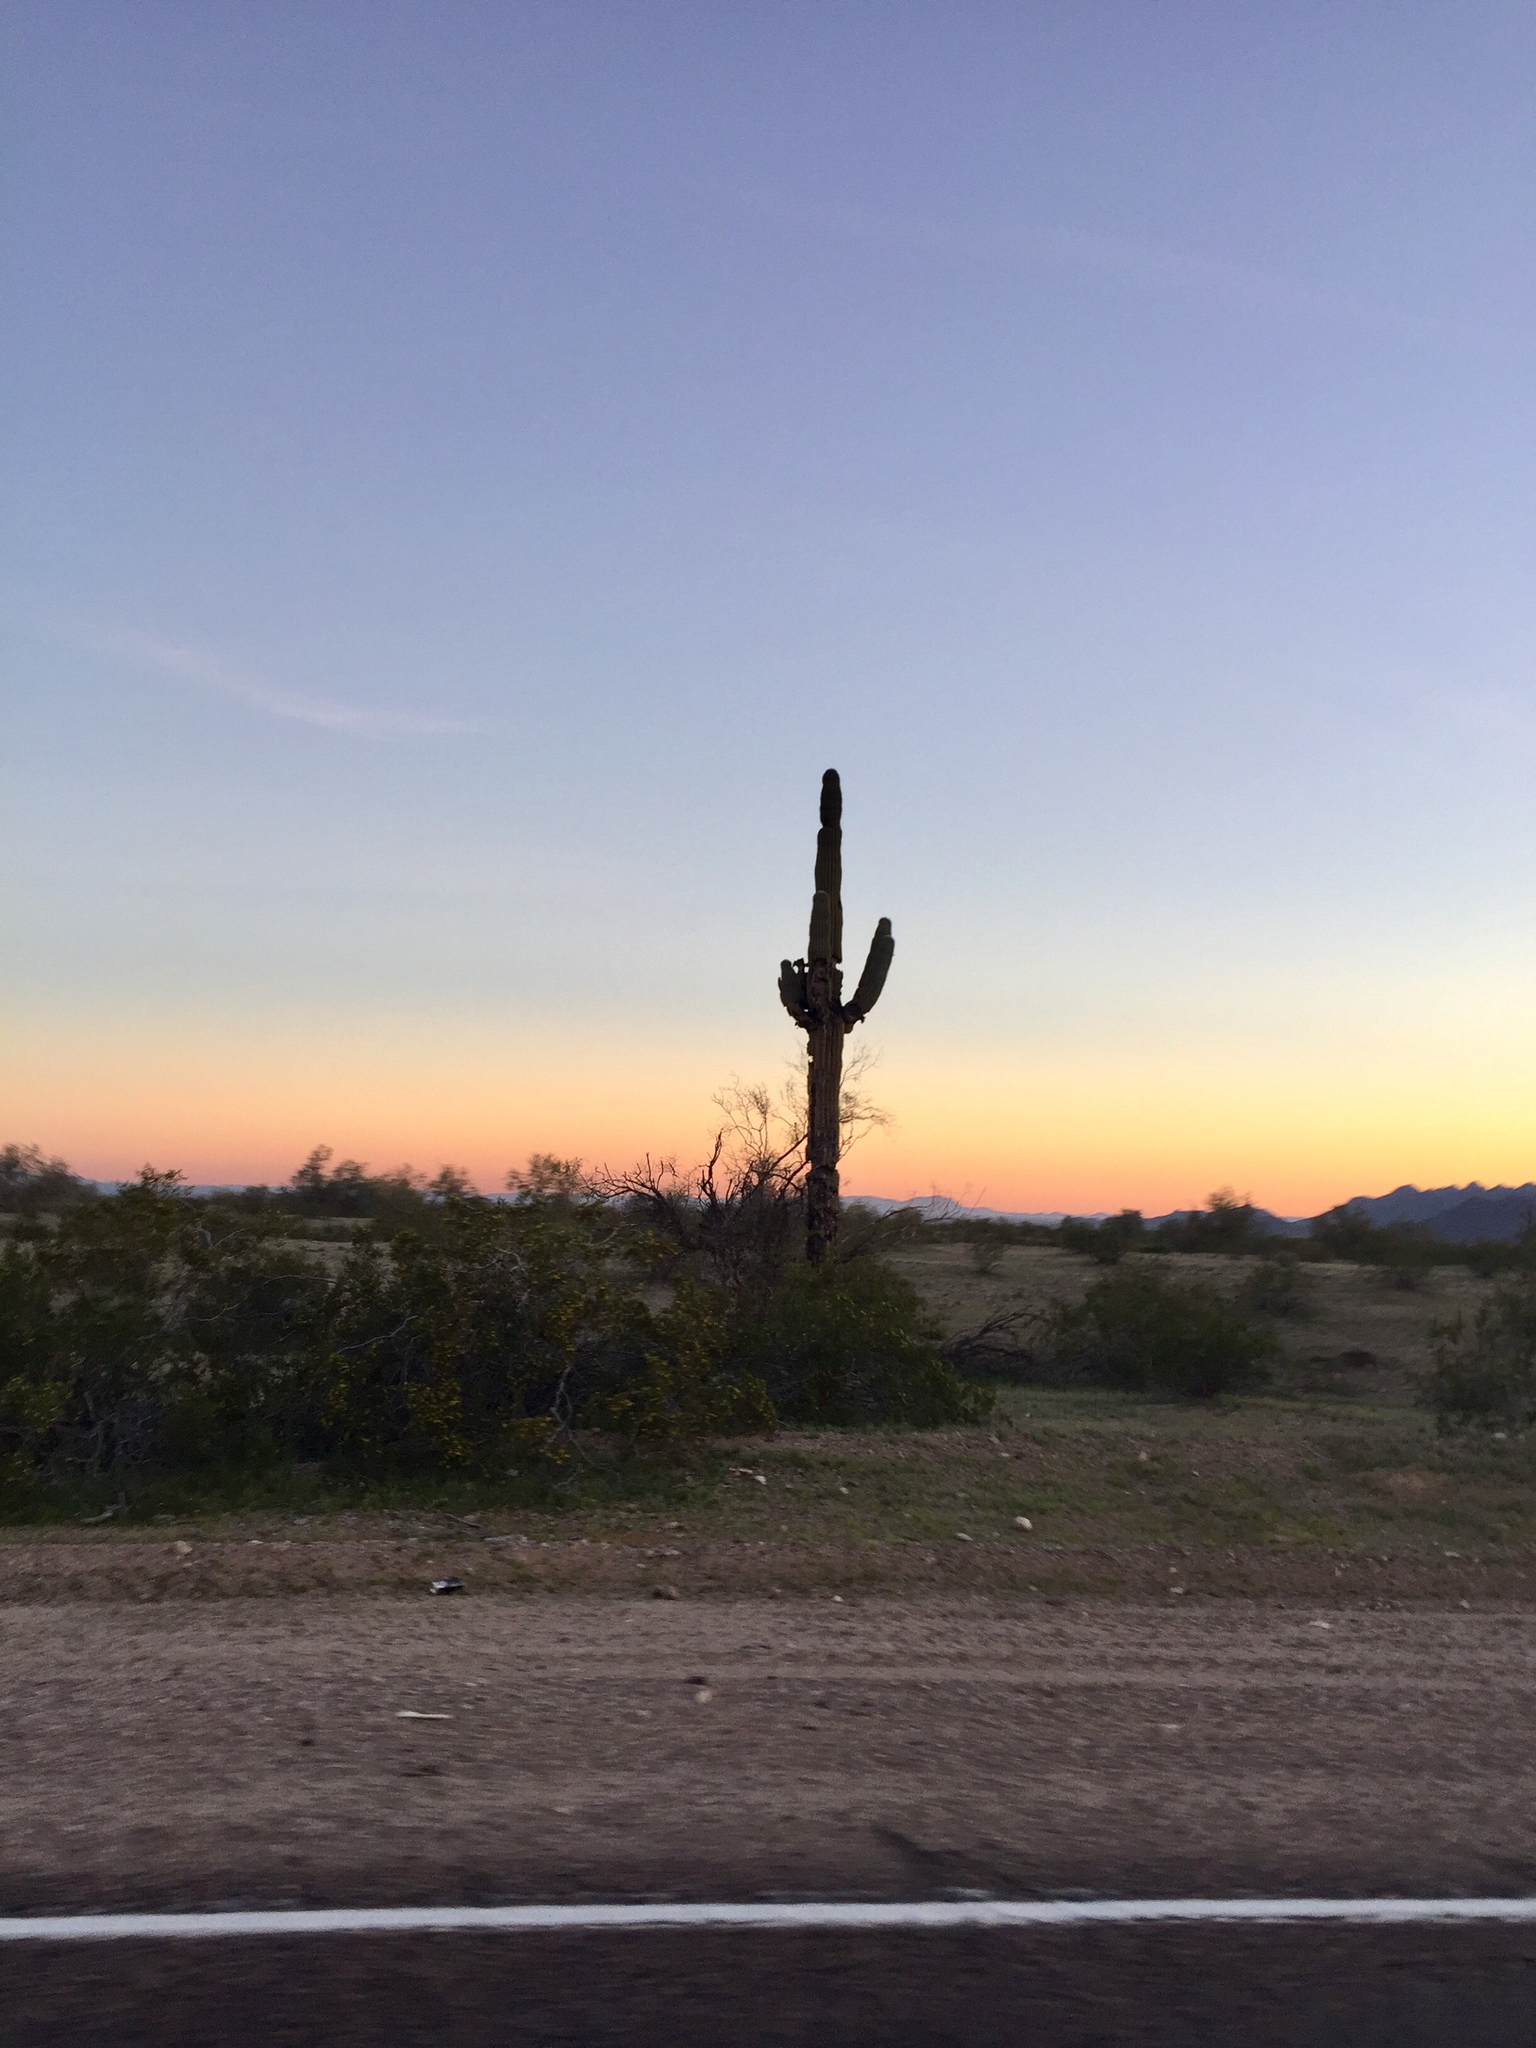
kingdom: Plantae
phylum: Tracheophyta
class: Magnoliopsida
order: Caryophyllales
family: Cactaceae
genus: Carnegiea
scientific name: Carnegiea gigantea
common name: Saguaro
